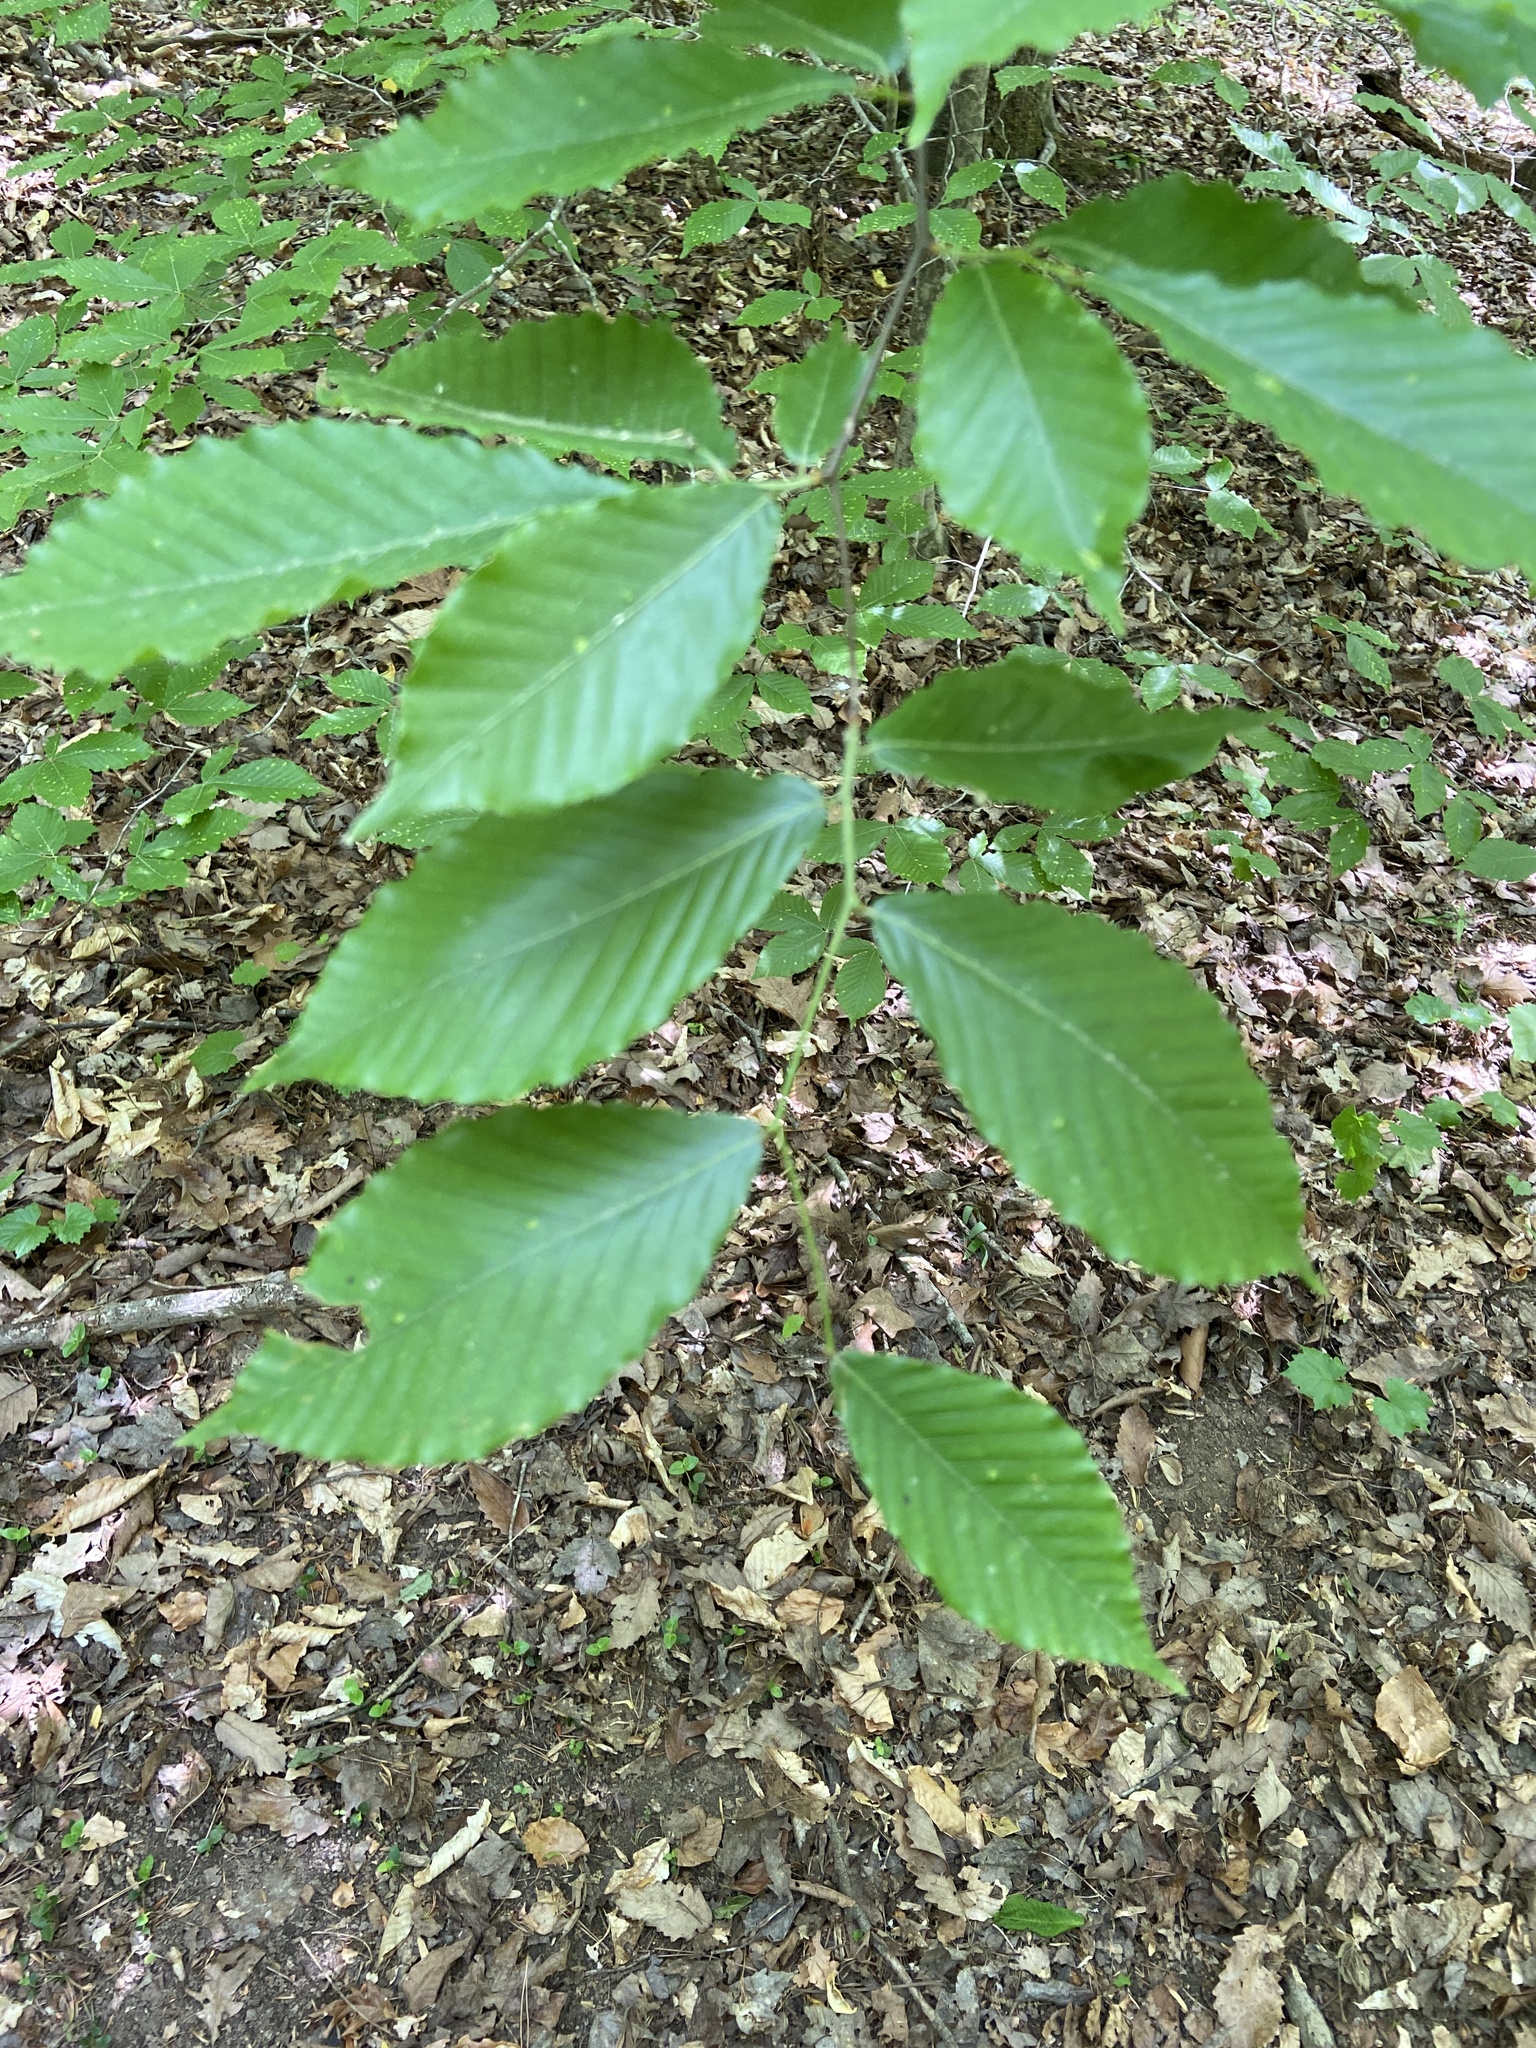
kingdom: Plantae
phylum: Tracheophyta
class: Magnoliopsida
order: Fagales
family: Fagaceae
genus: Fagus
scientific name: Fagus grandifolia
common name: American beech
